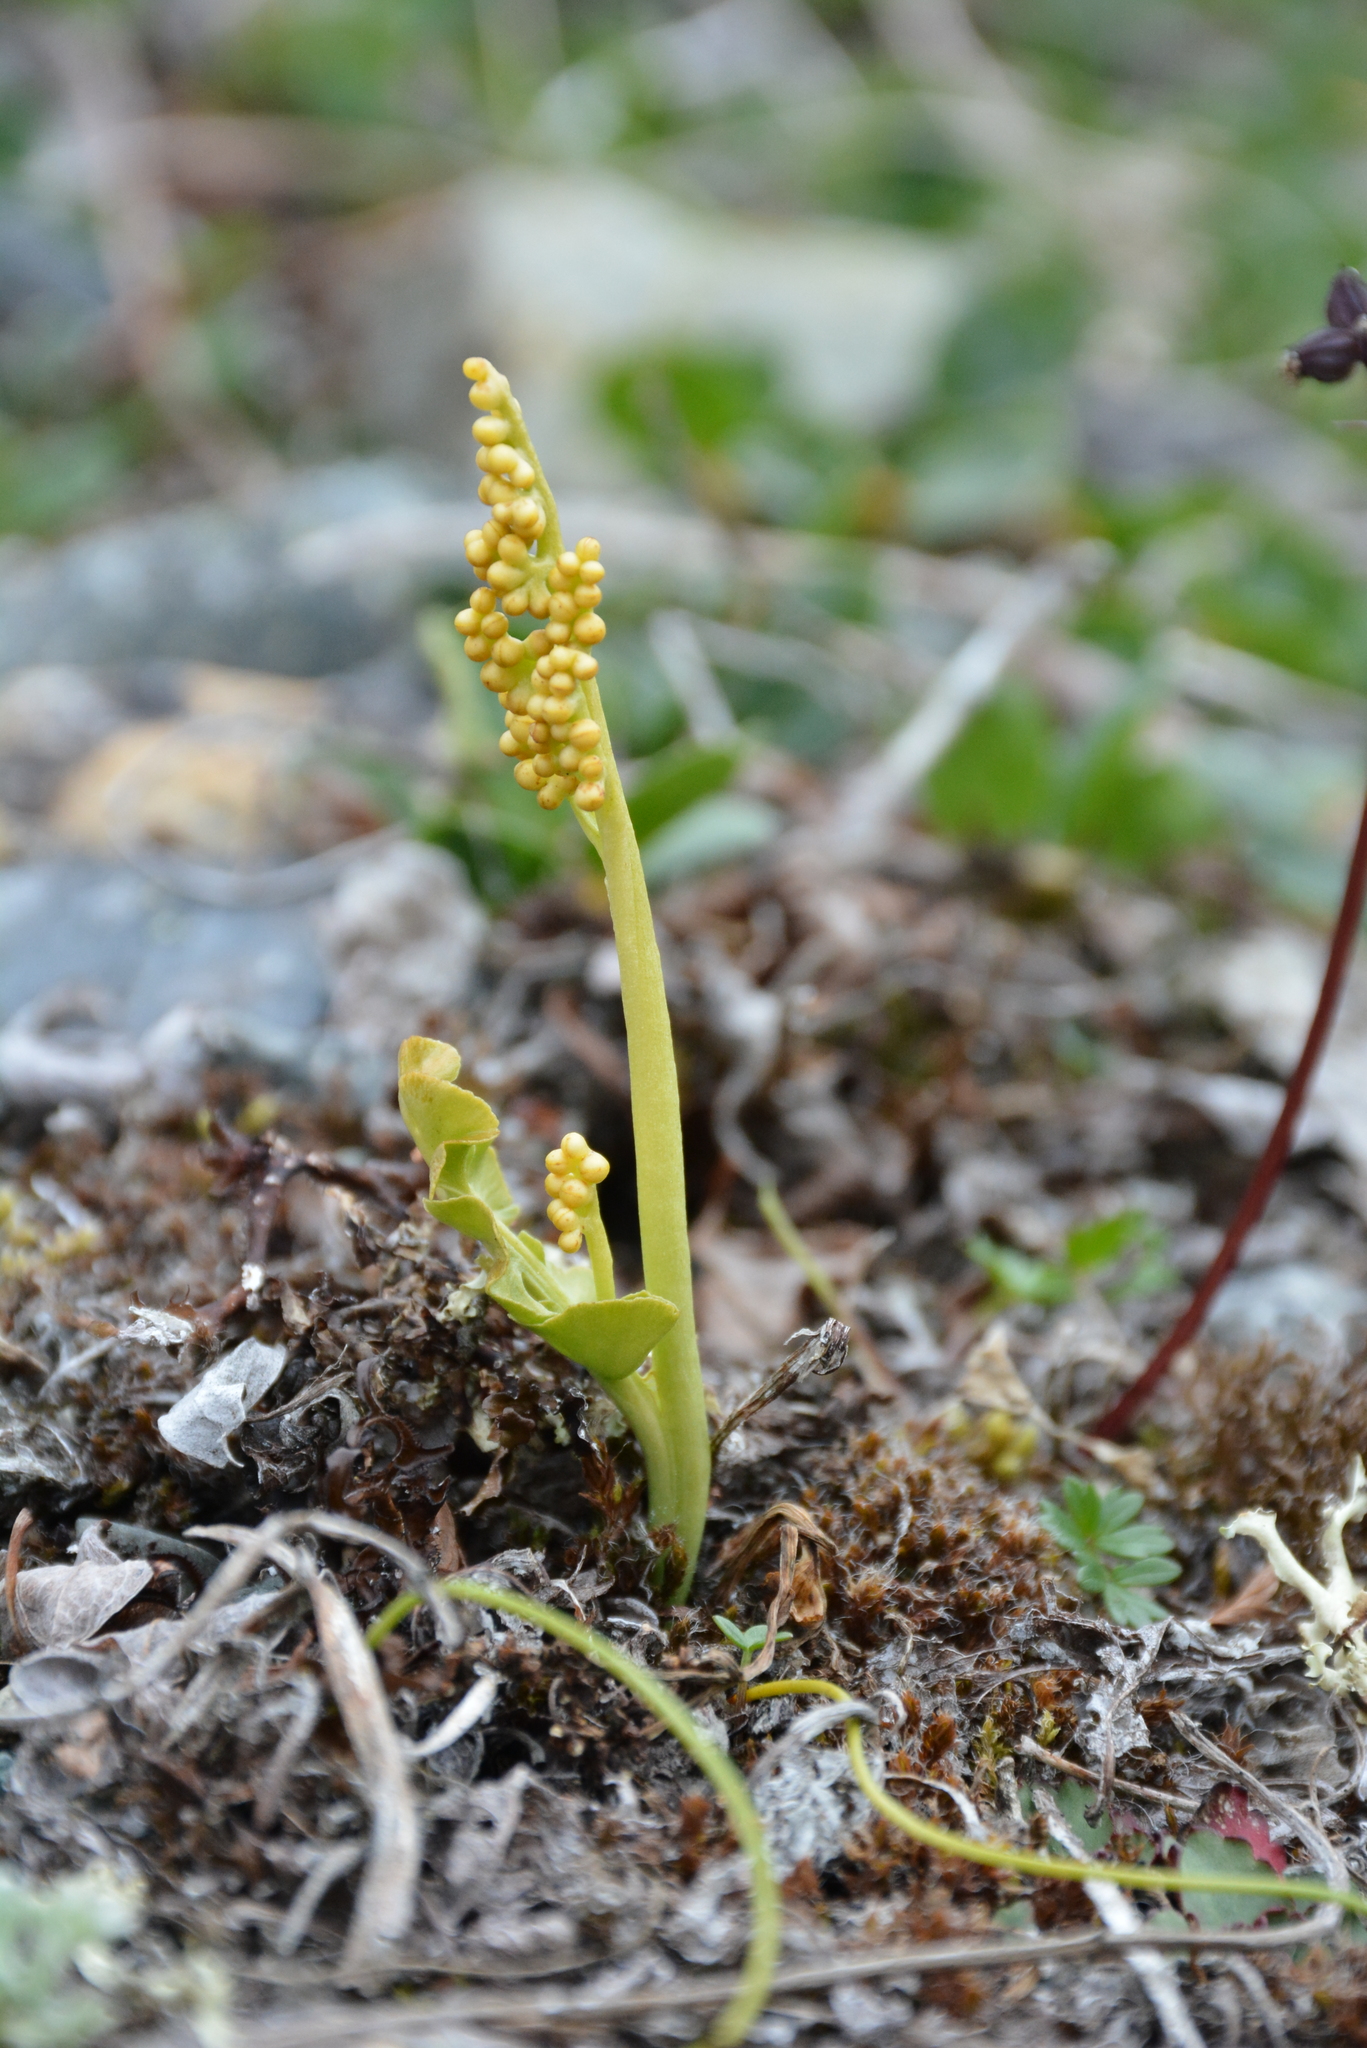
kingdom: Plantae
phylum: Tracheophyta
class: Polypodiopsida
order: Ophioglossales
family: Ophioglossaceae
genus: Botrychium
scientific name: Botrychium lunaria
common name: Moonwort
